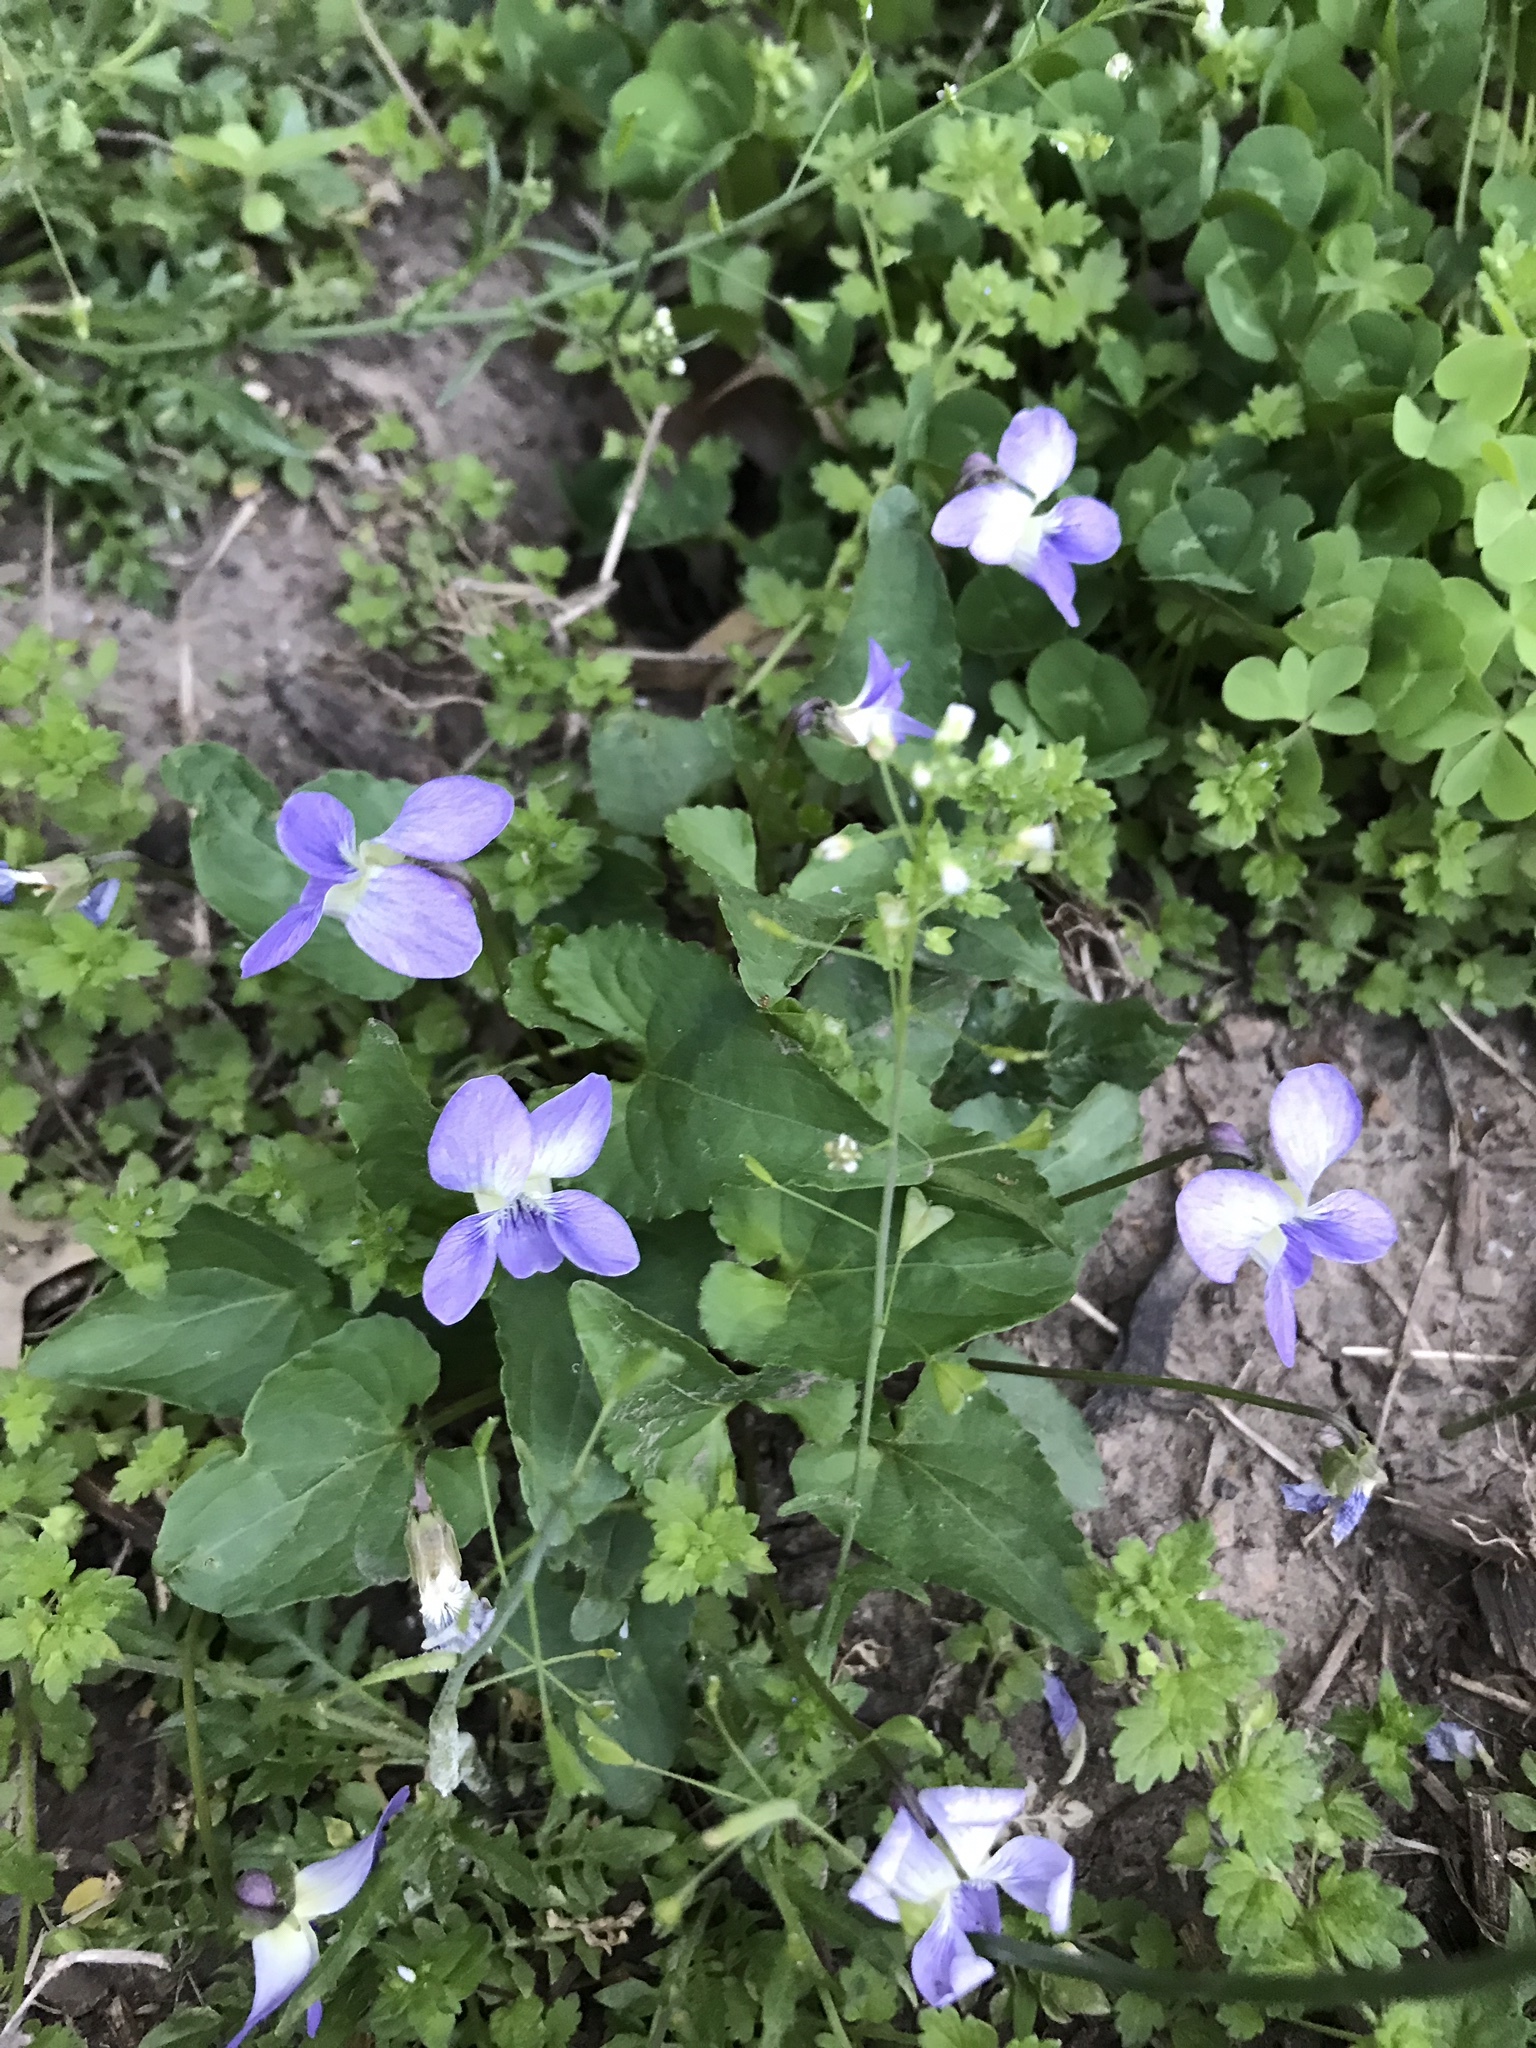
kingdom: Plantae
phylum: Tracheophyta
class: Magnoliopsida
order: Malpighiales
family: Violaceae
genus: Viola
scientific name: Viola sororia
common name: Dooryard violet
